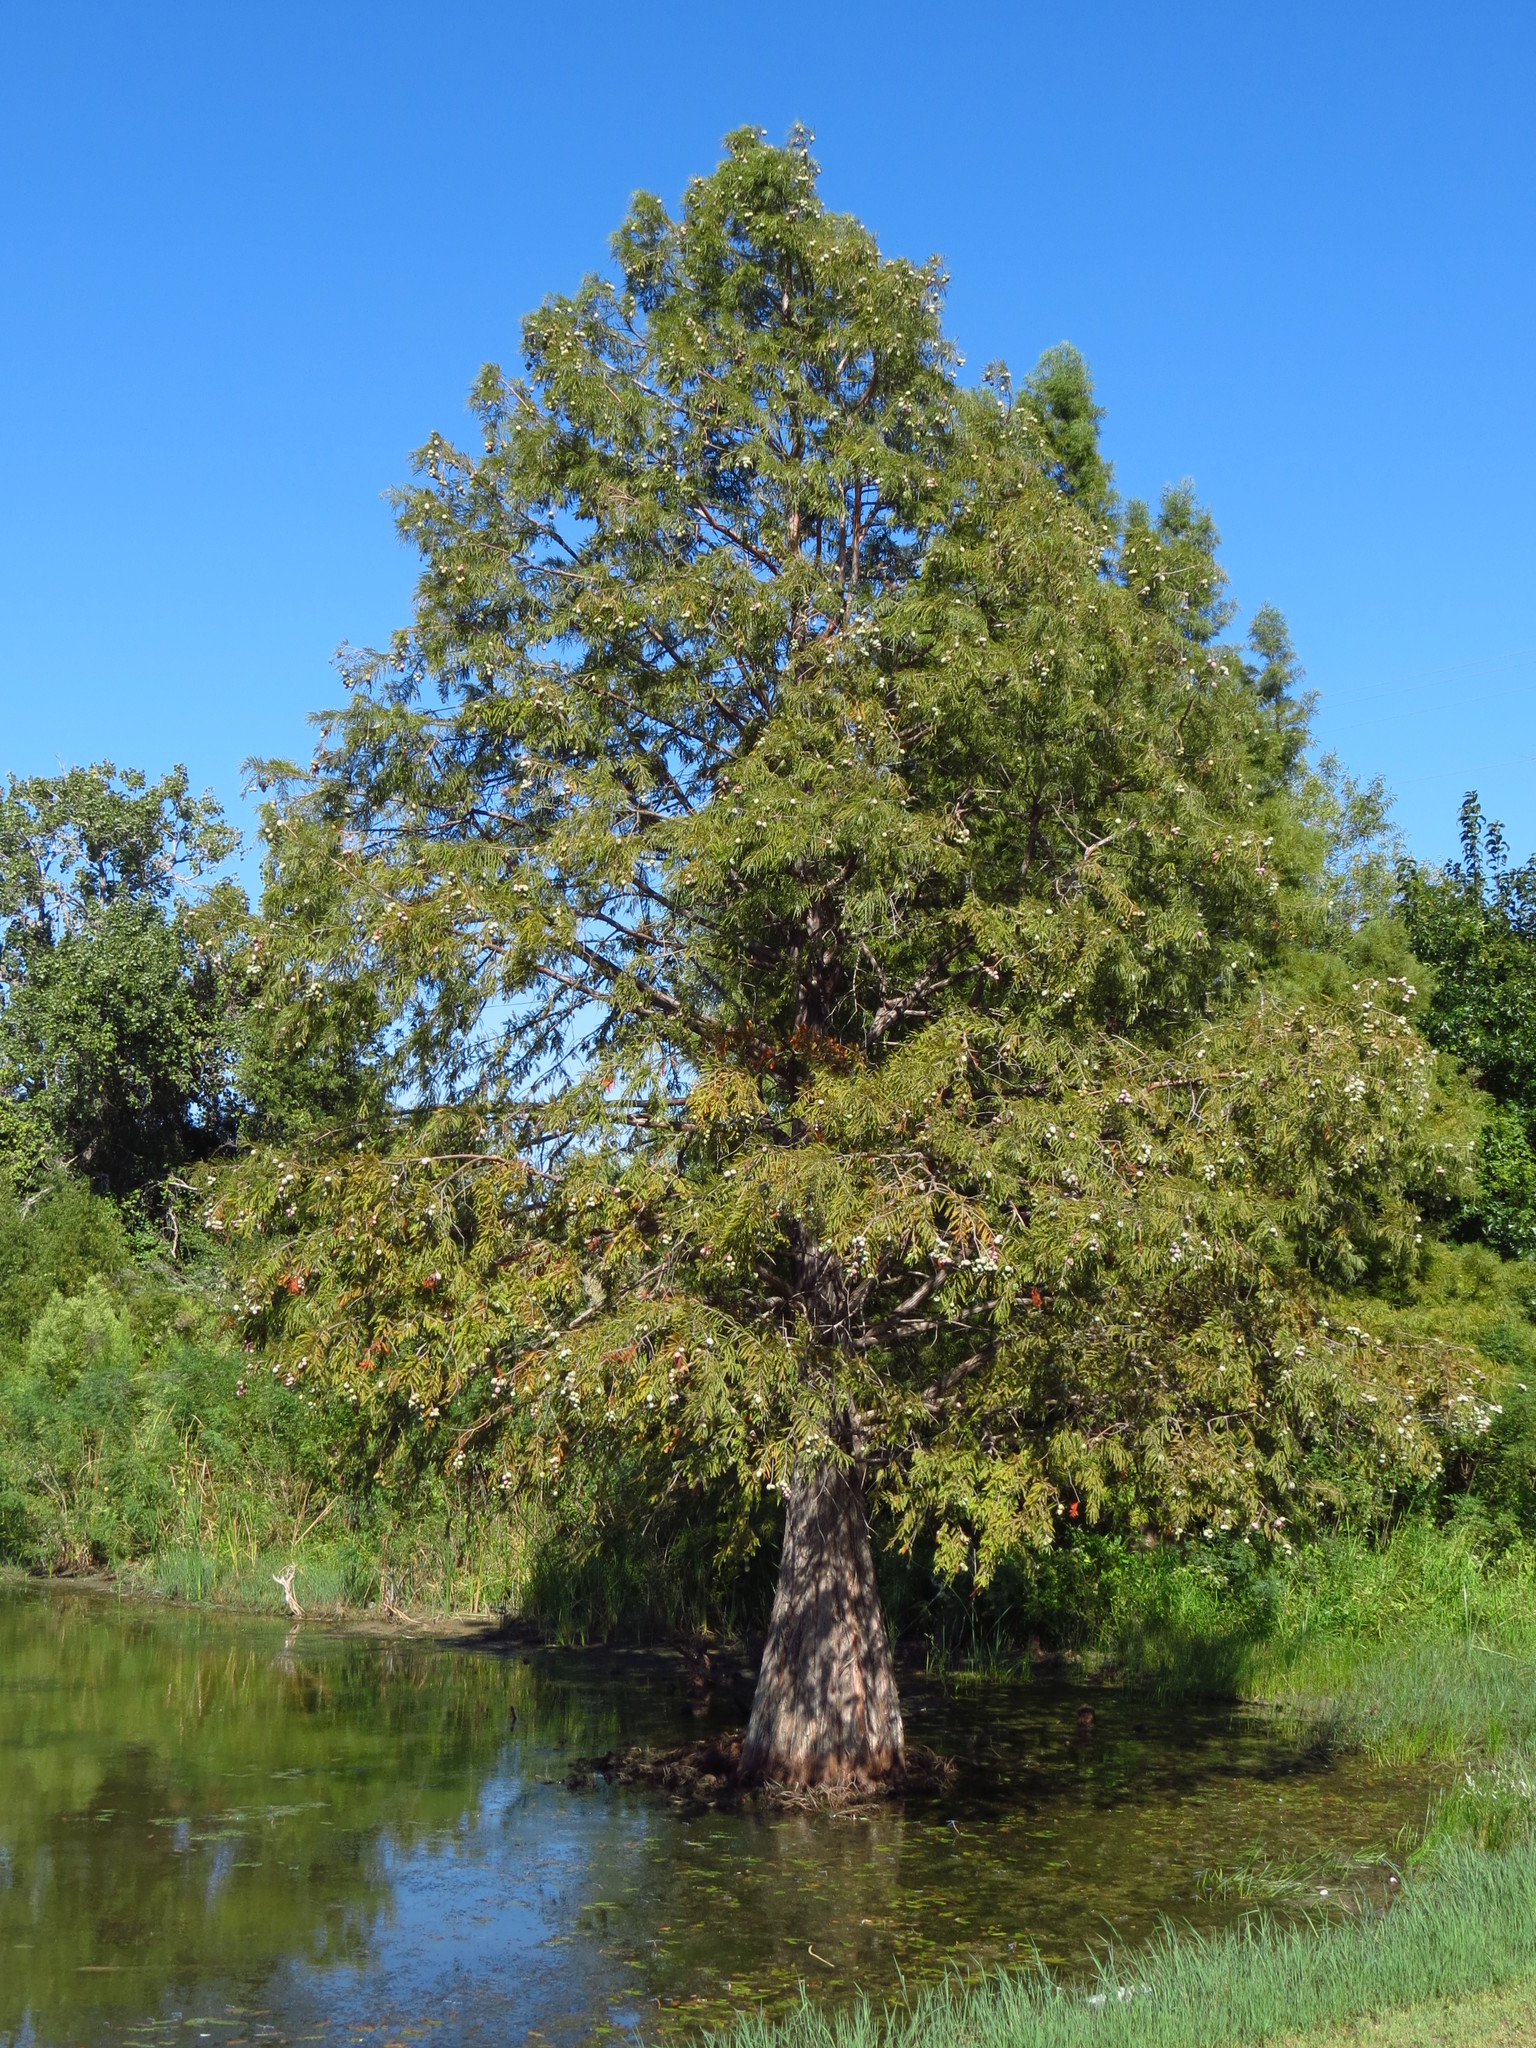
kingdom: Plantae
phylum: Tracheophyta
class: Pinopsida
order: Pinales
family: Cupressaceae
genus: Taxodium
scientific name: Taxodium distichum
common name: Bald cypress
